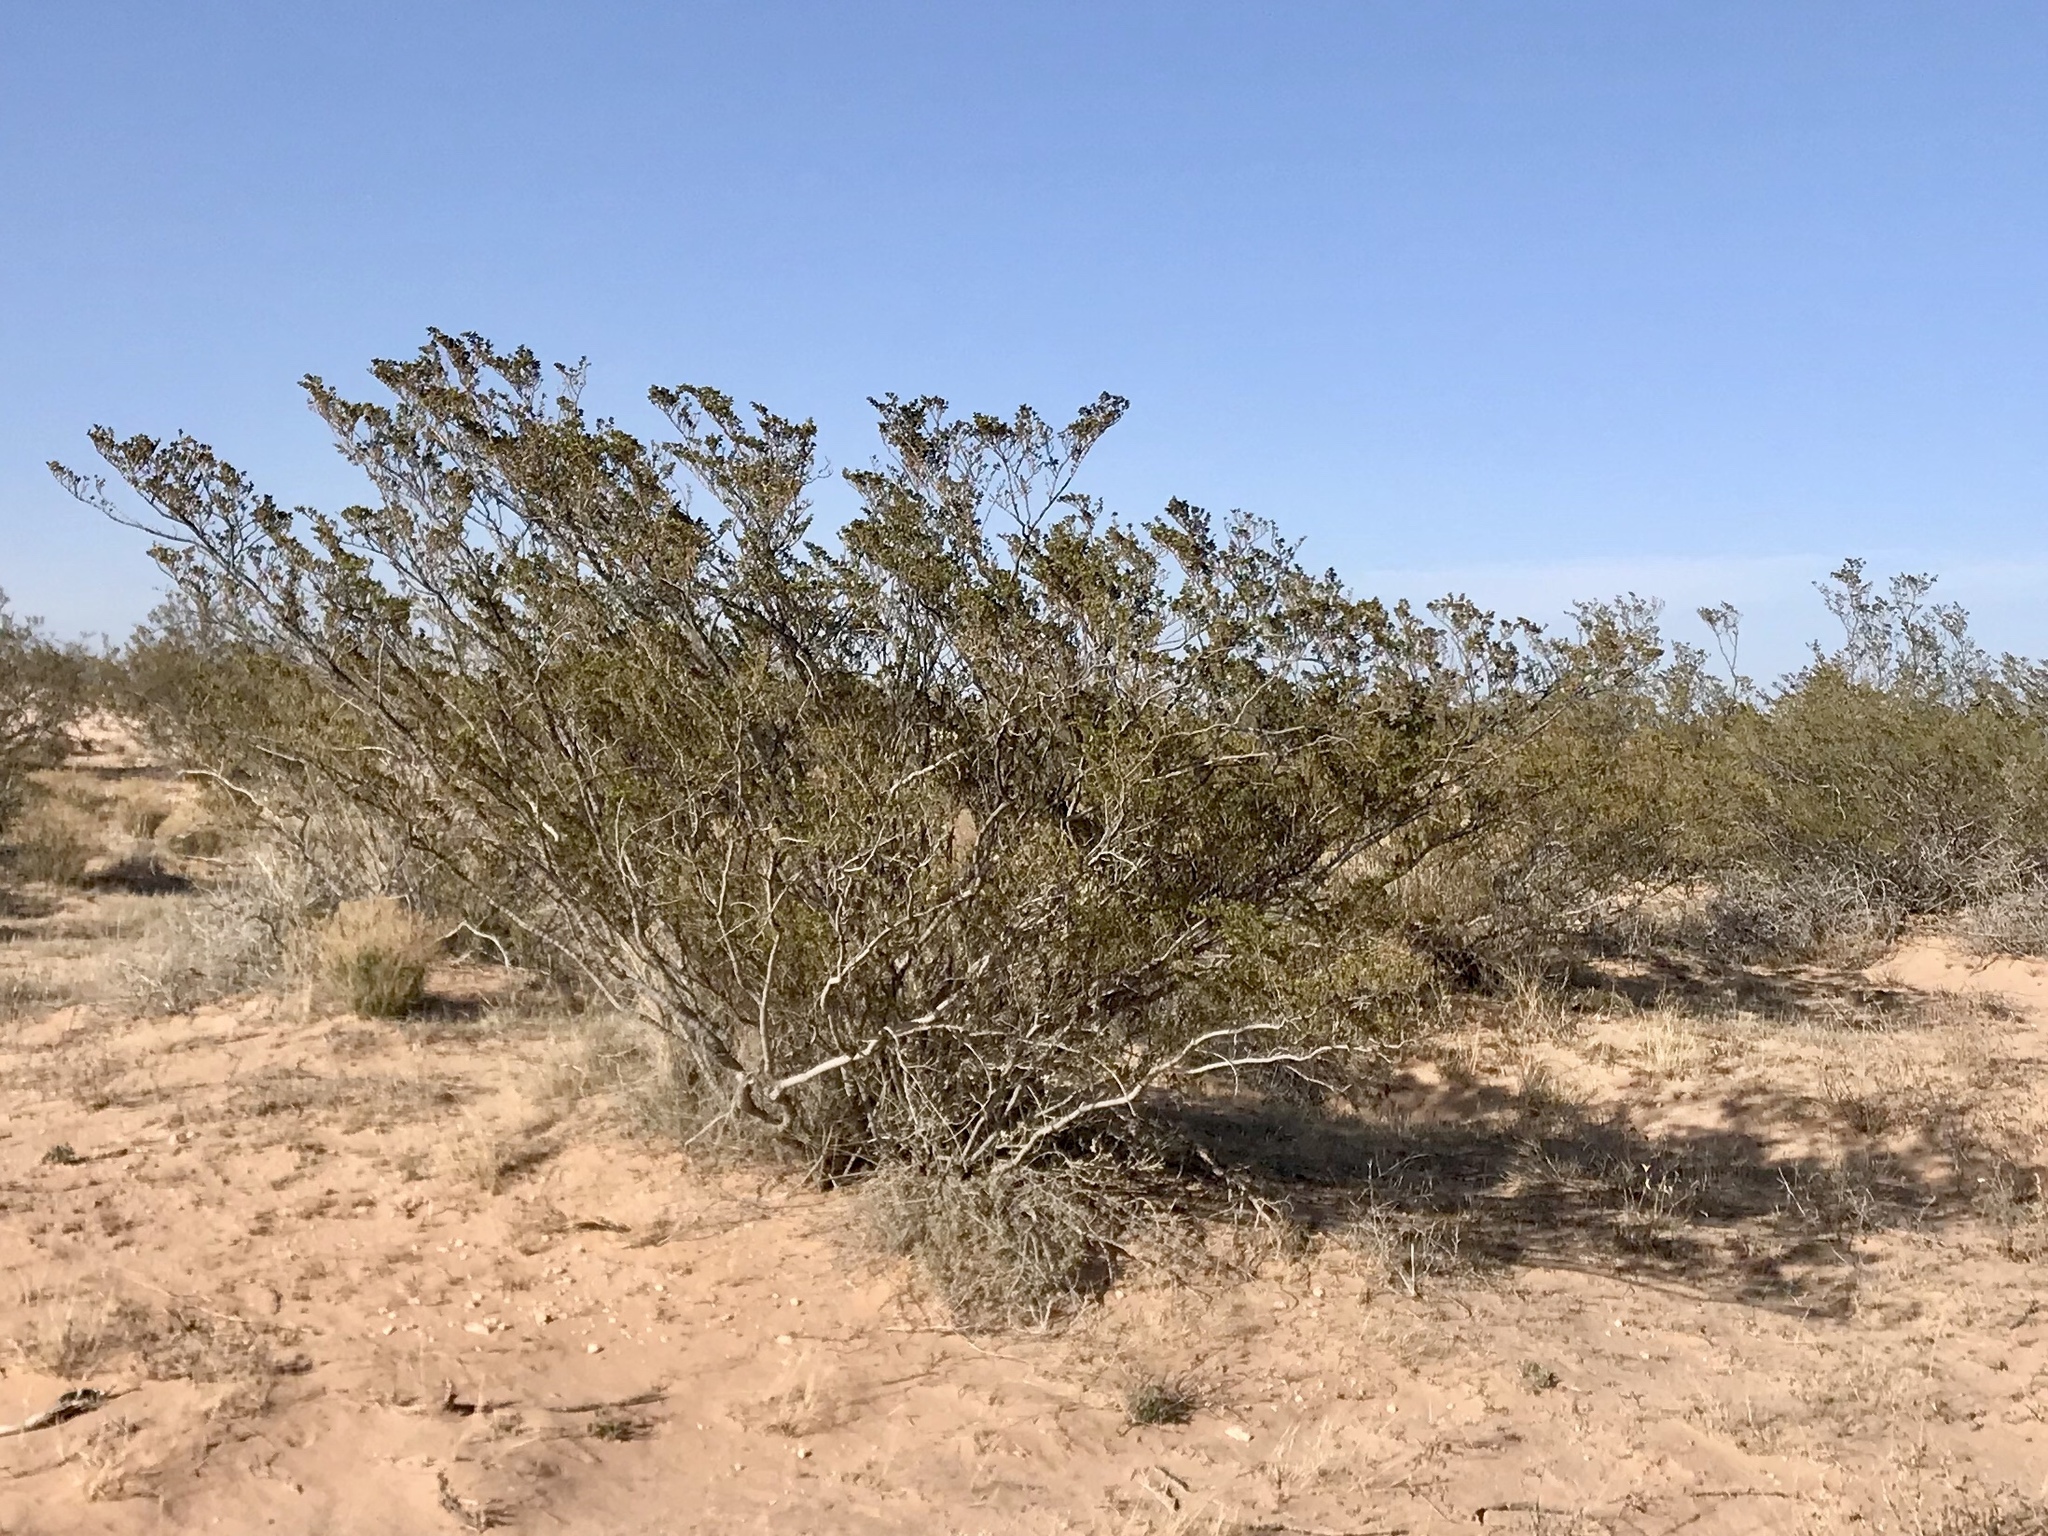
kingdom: Plantae
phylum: Tracheophyta
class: Magnoliopsida
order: Zygophyllales
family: Zygophyllaceae
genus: Larrea
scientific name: Larrea tridentata
